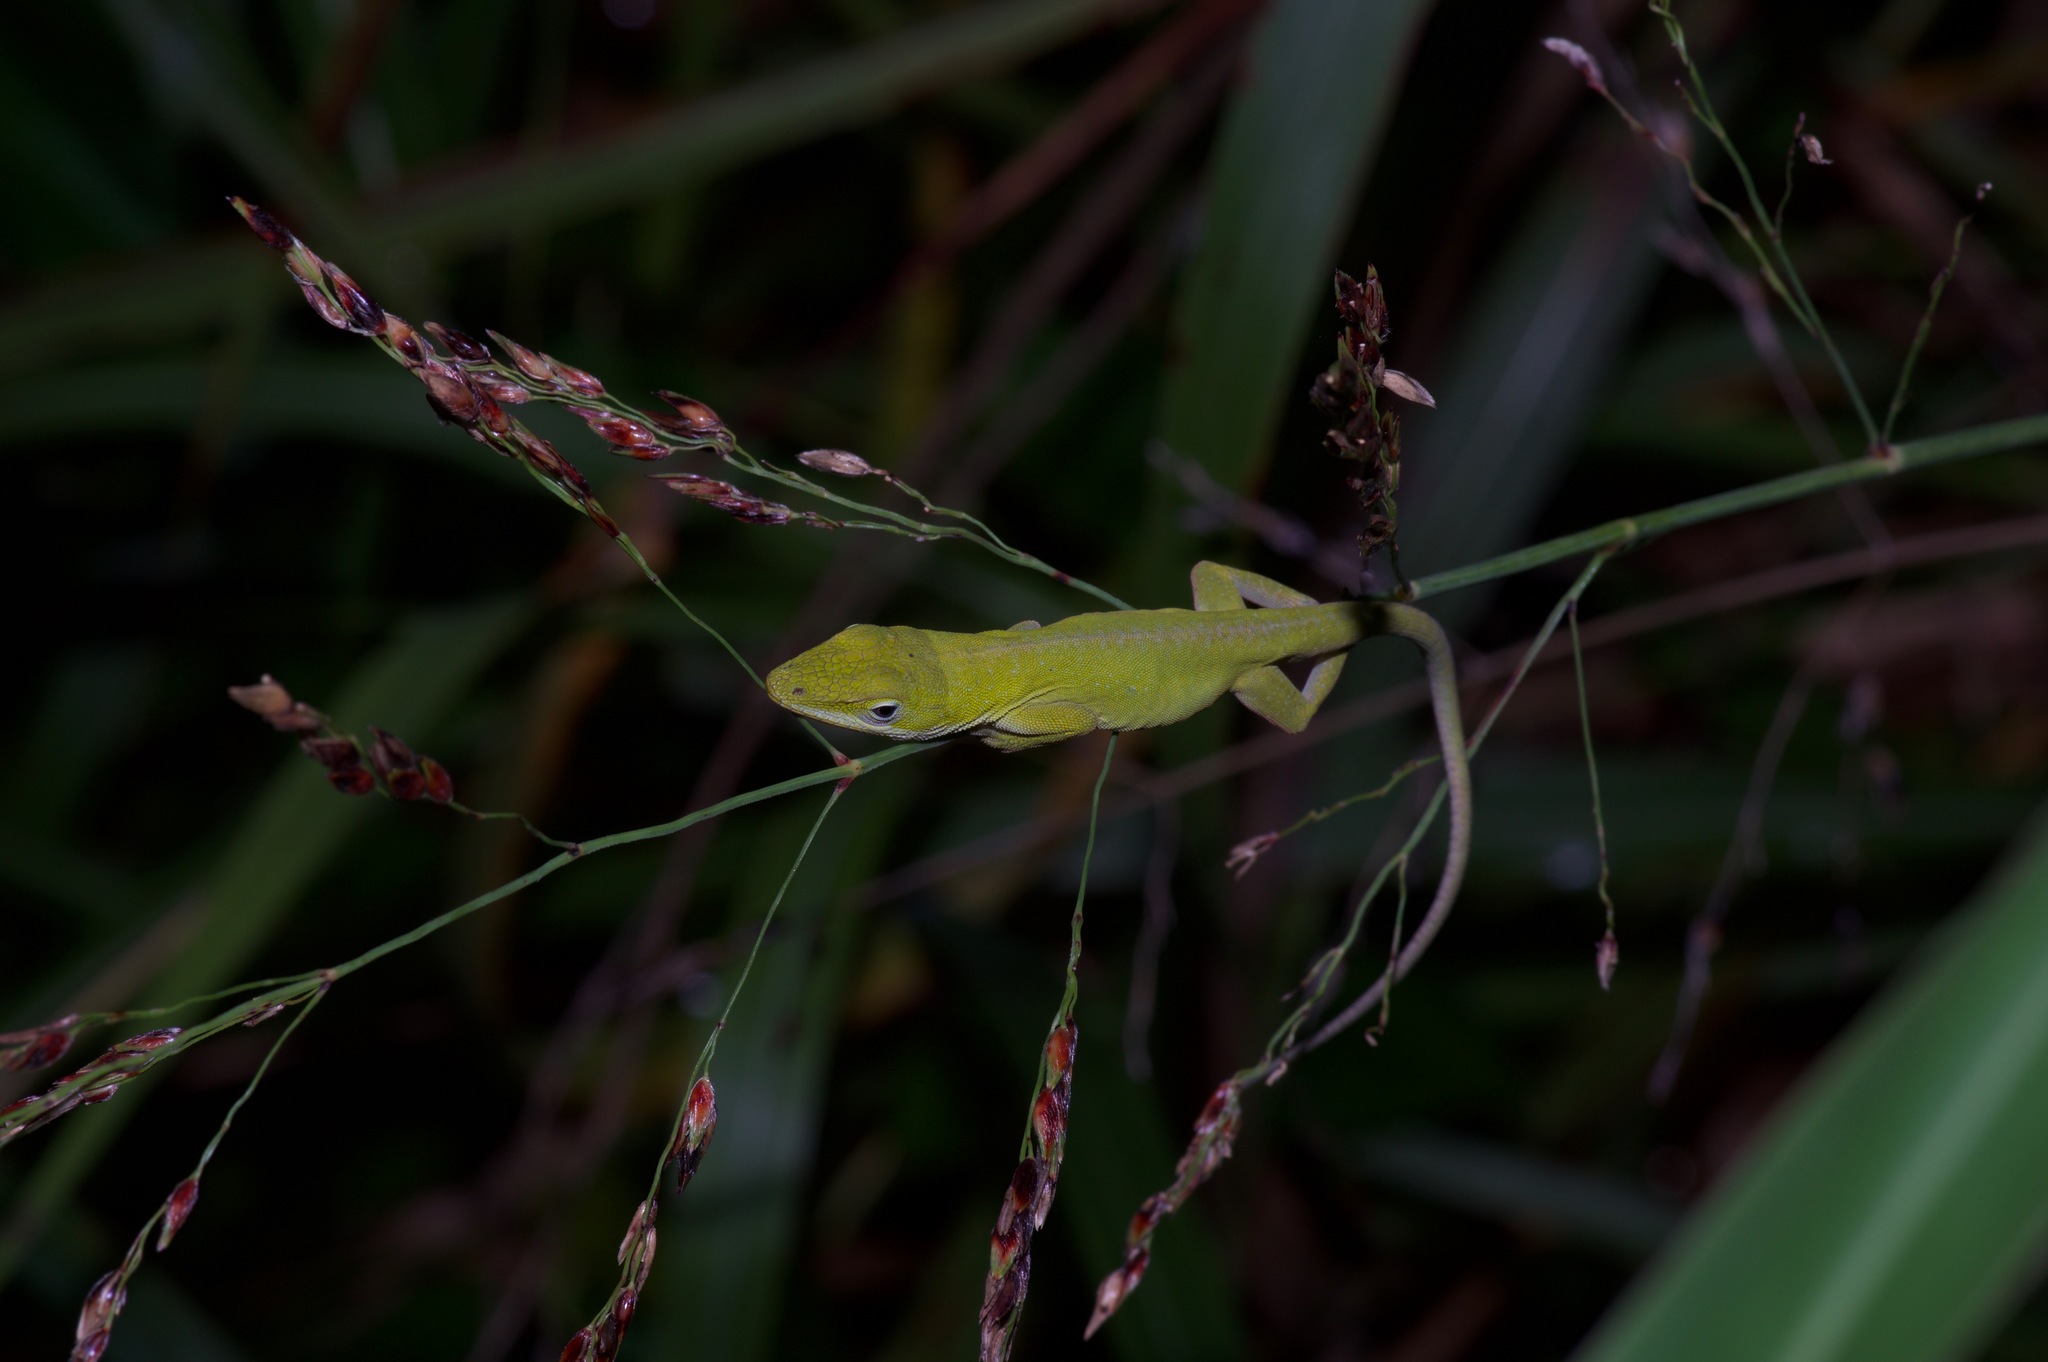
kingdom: Animalia
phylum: Chordata
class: Squamata
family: Dactyloidae
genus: Anolis
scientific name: Anolis carolinensis
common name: Green anole
